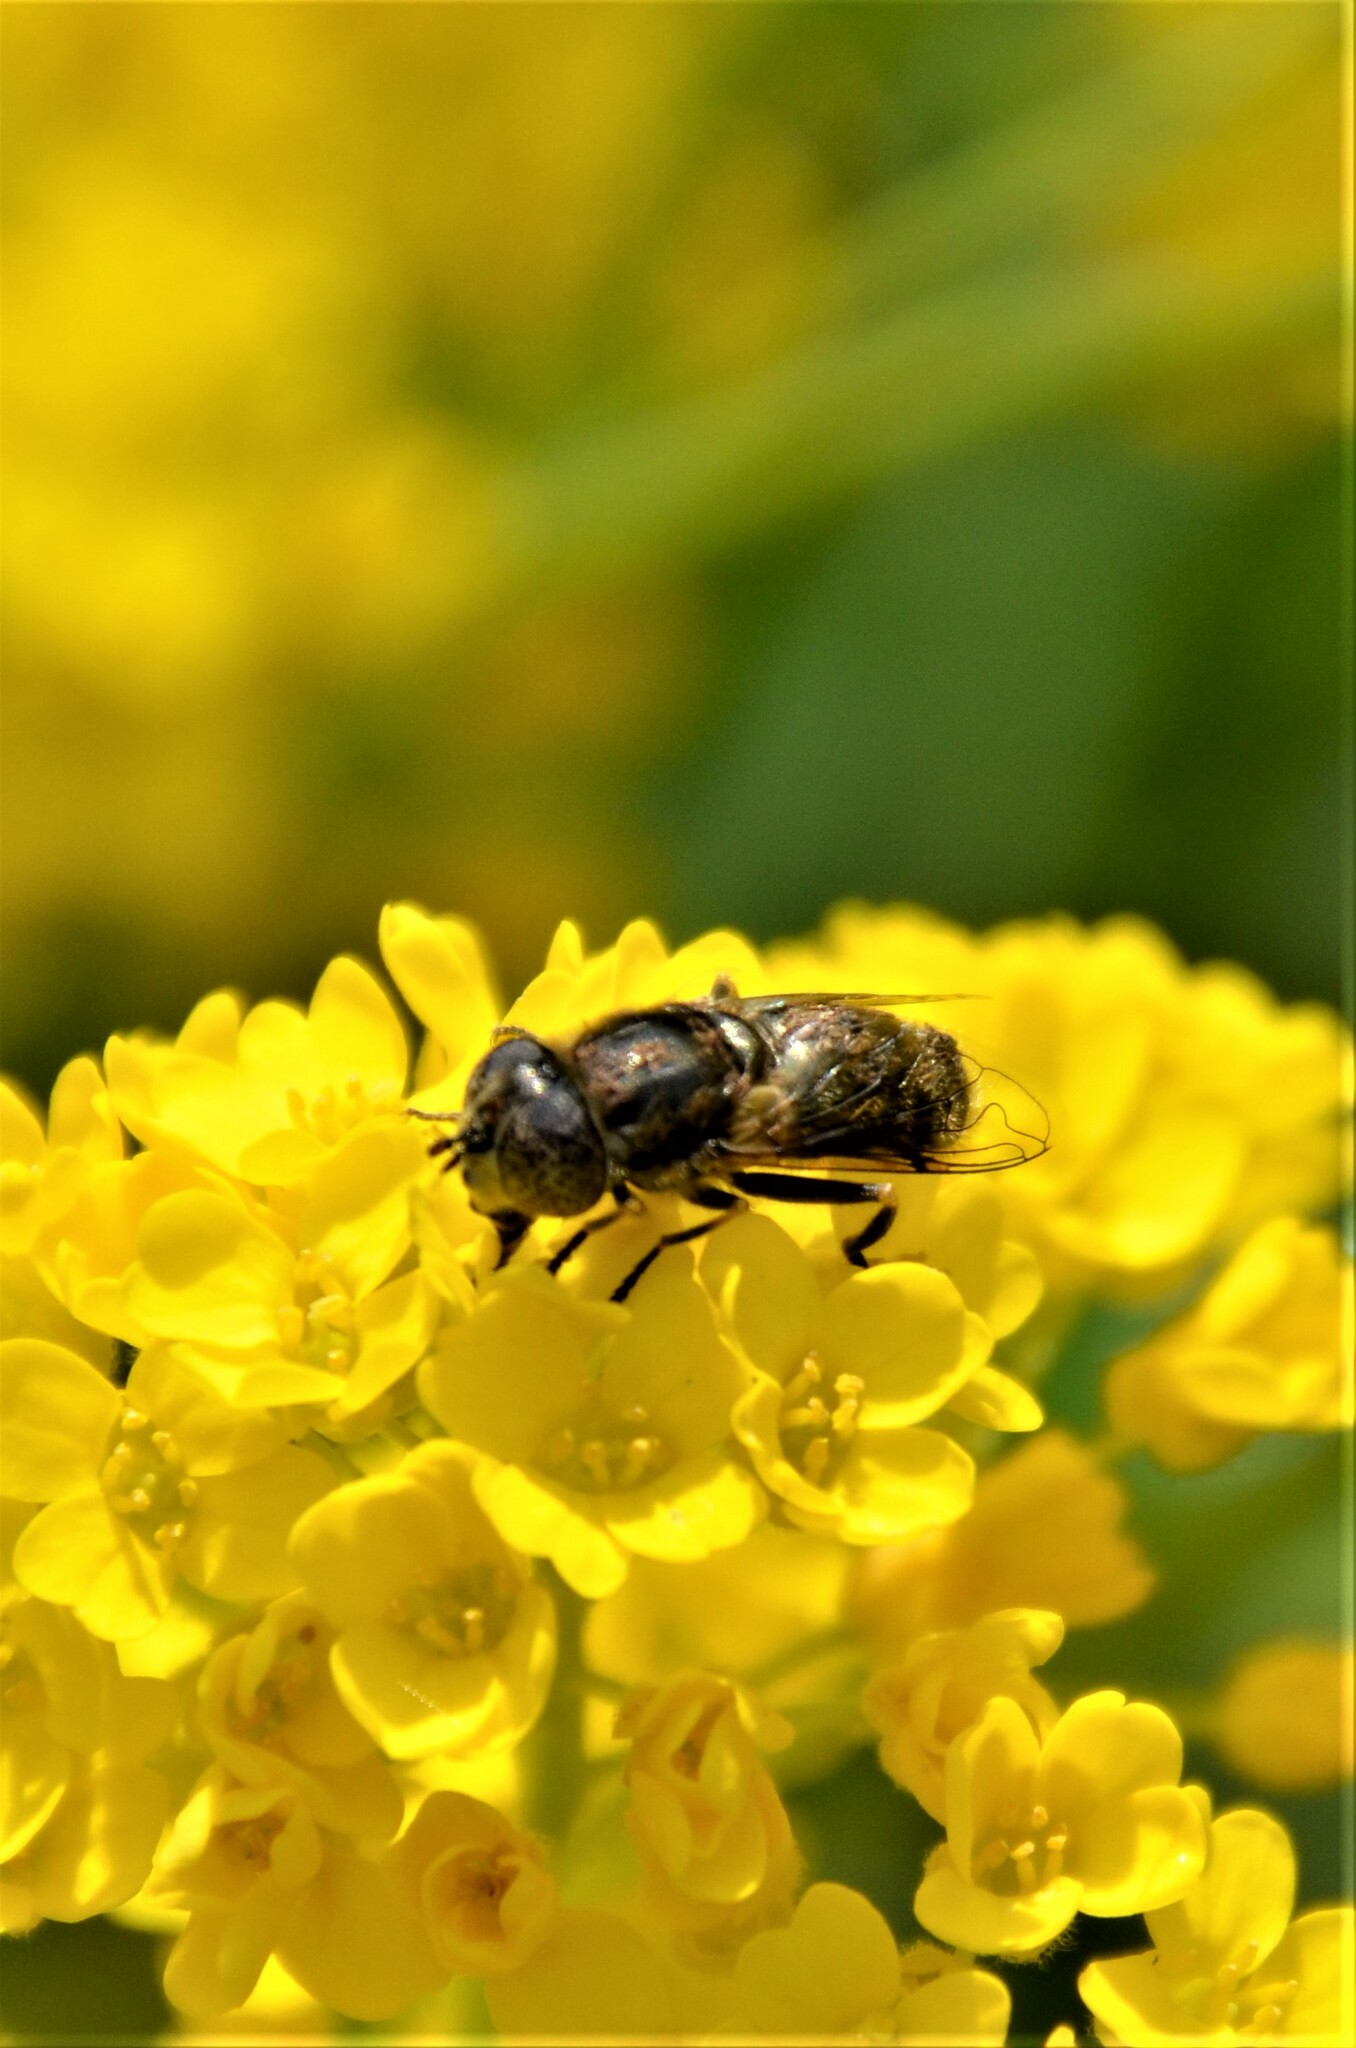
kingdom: Animalia
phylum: Arthropoda
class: Insecta
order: Diptera
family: Syrphidae
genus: Eristalinus
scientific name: Eristalinus aeneus
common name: Syrphid fly
